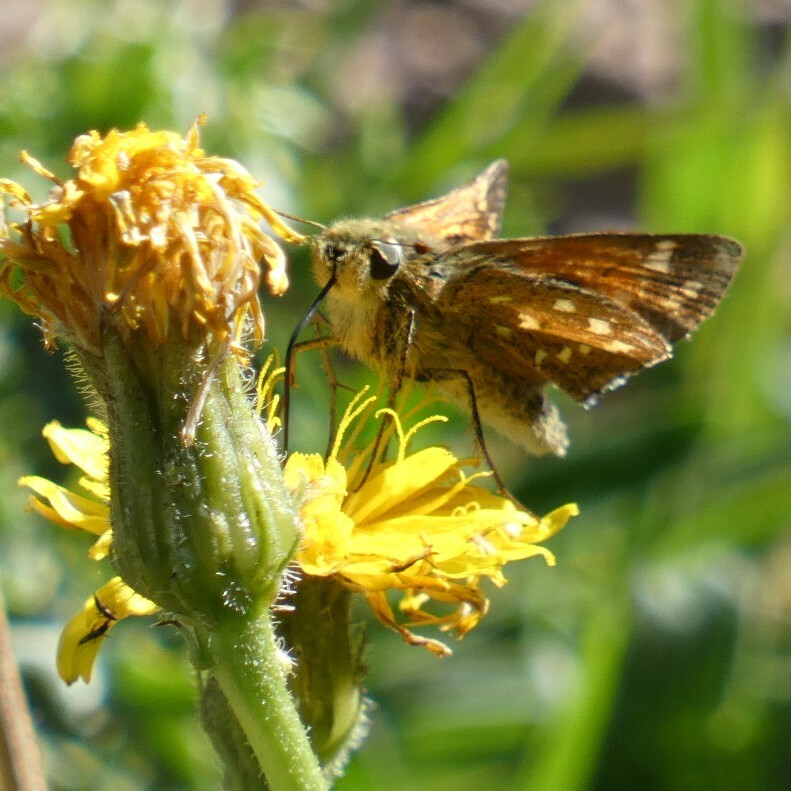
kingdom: Animalia
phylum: Arthropoda
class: Insecta
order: Lepidoptera
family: Hesperiidae
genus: Hesperia
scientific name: Hesperia comma
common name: Common branded skipper
